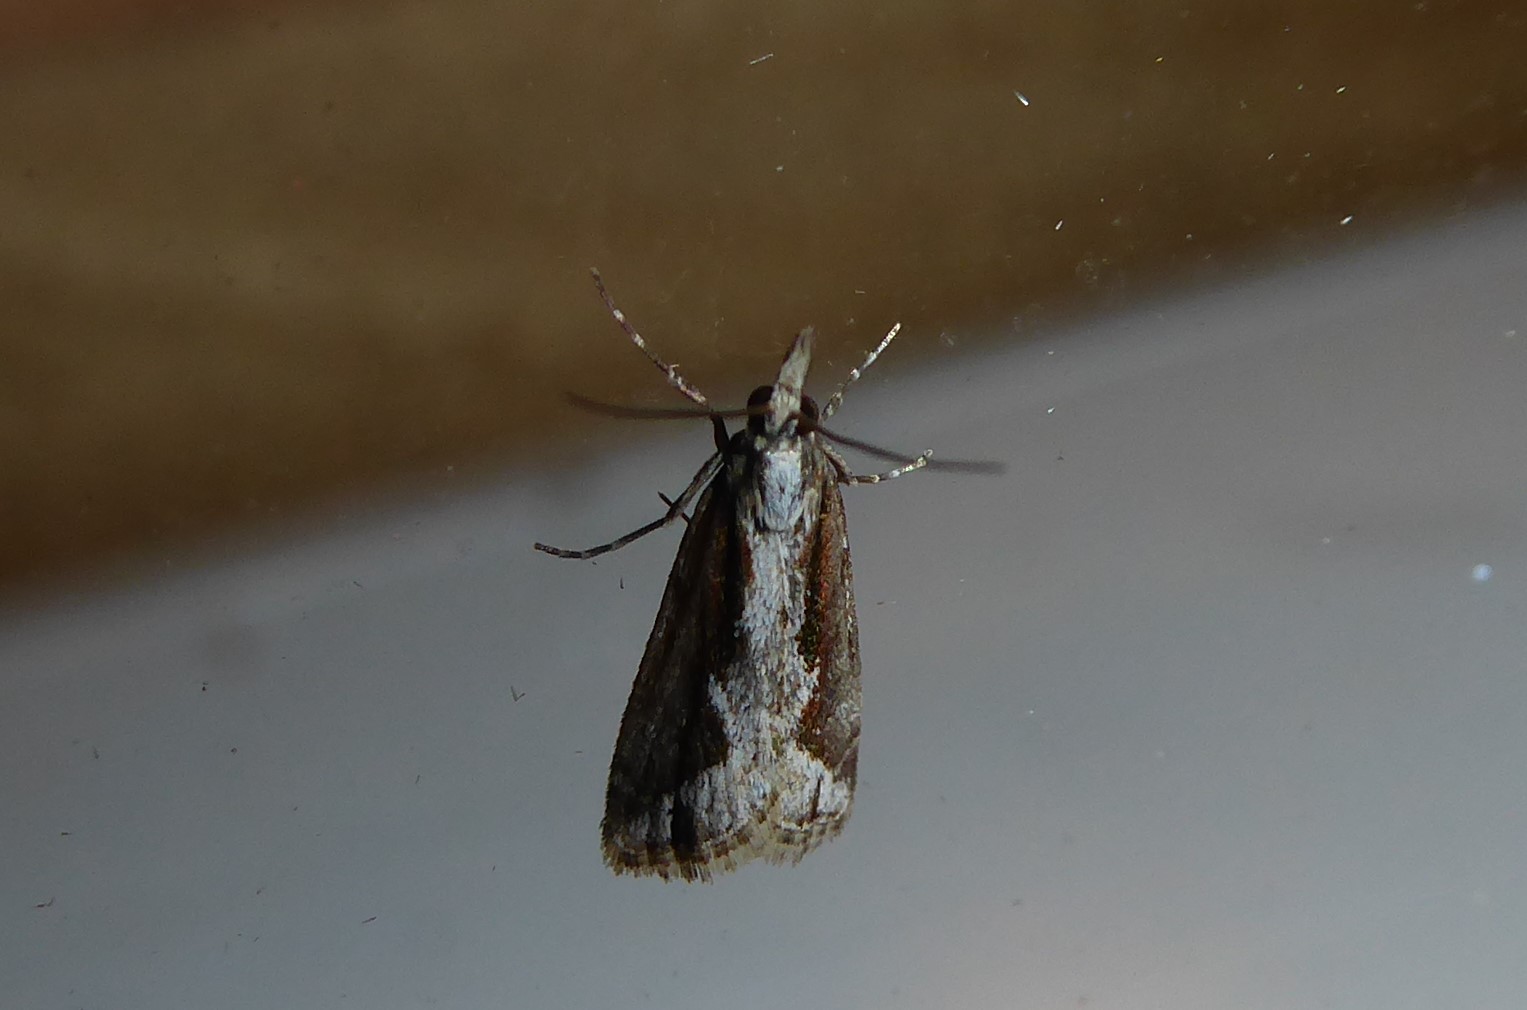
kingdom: Animalia
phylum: Arthropoda
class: Insecta
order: Lepidoptera
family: Crambidae
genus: Eudonia
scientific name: Eudonia steropaea
